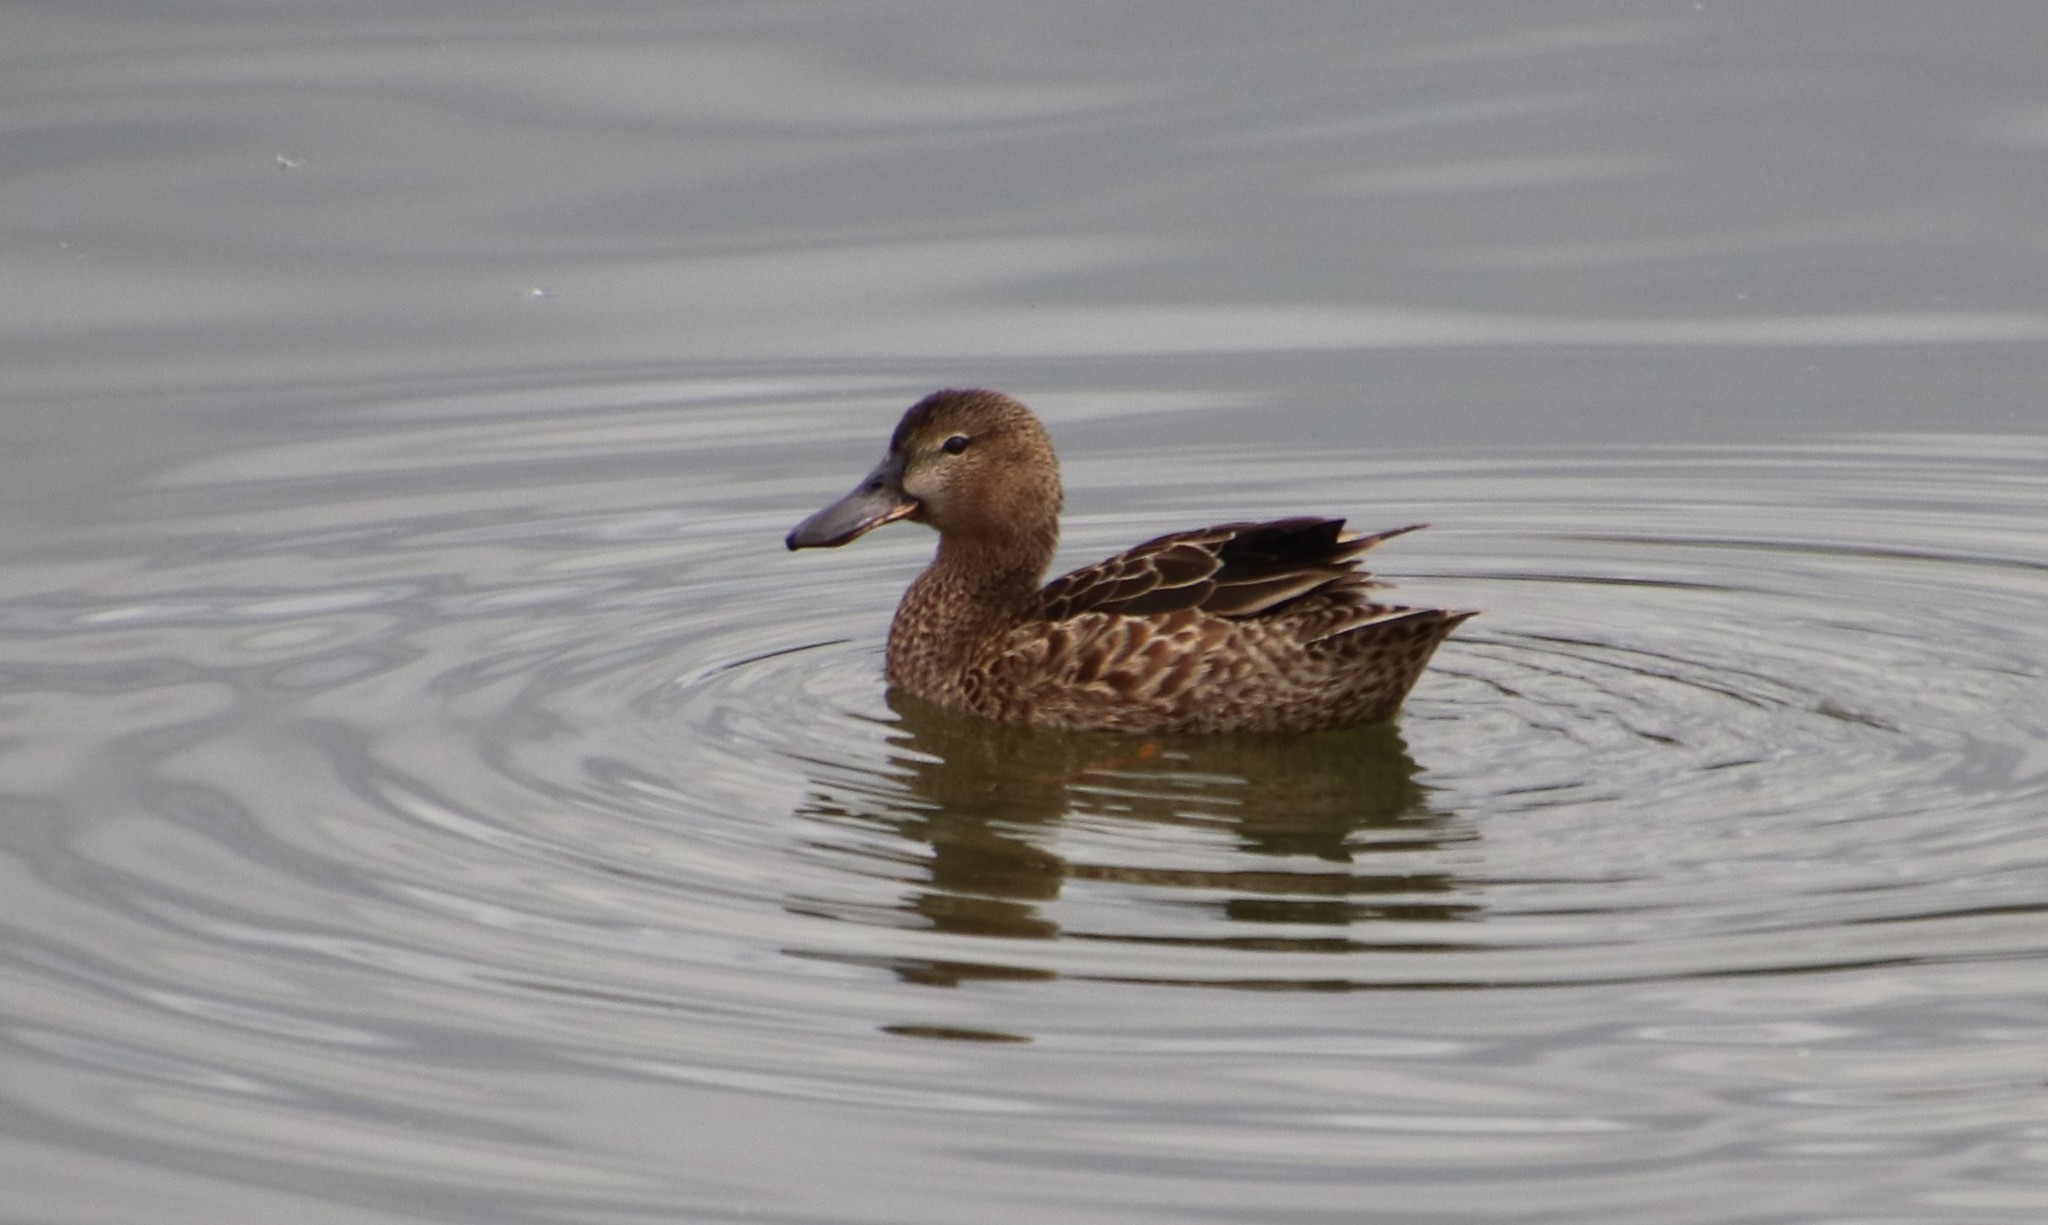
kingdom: Animalia
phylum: Chordata
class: Aves
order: Anseriformes
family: Anatidae
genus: Spatula
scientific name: Spatula cyanoptera
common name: Cinnamon teal
